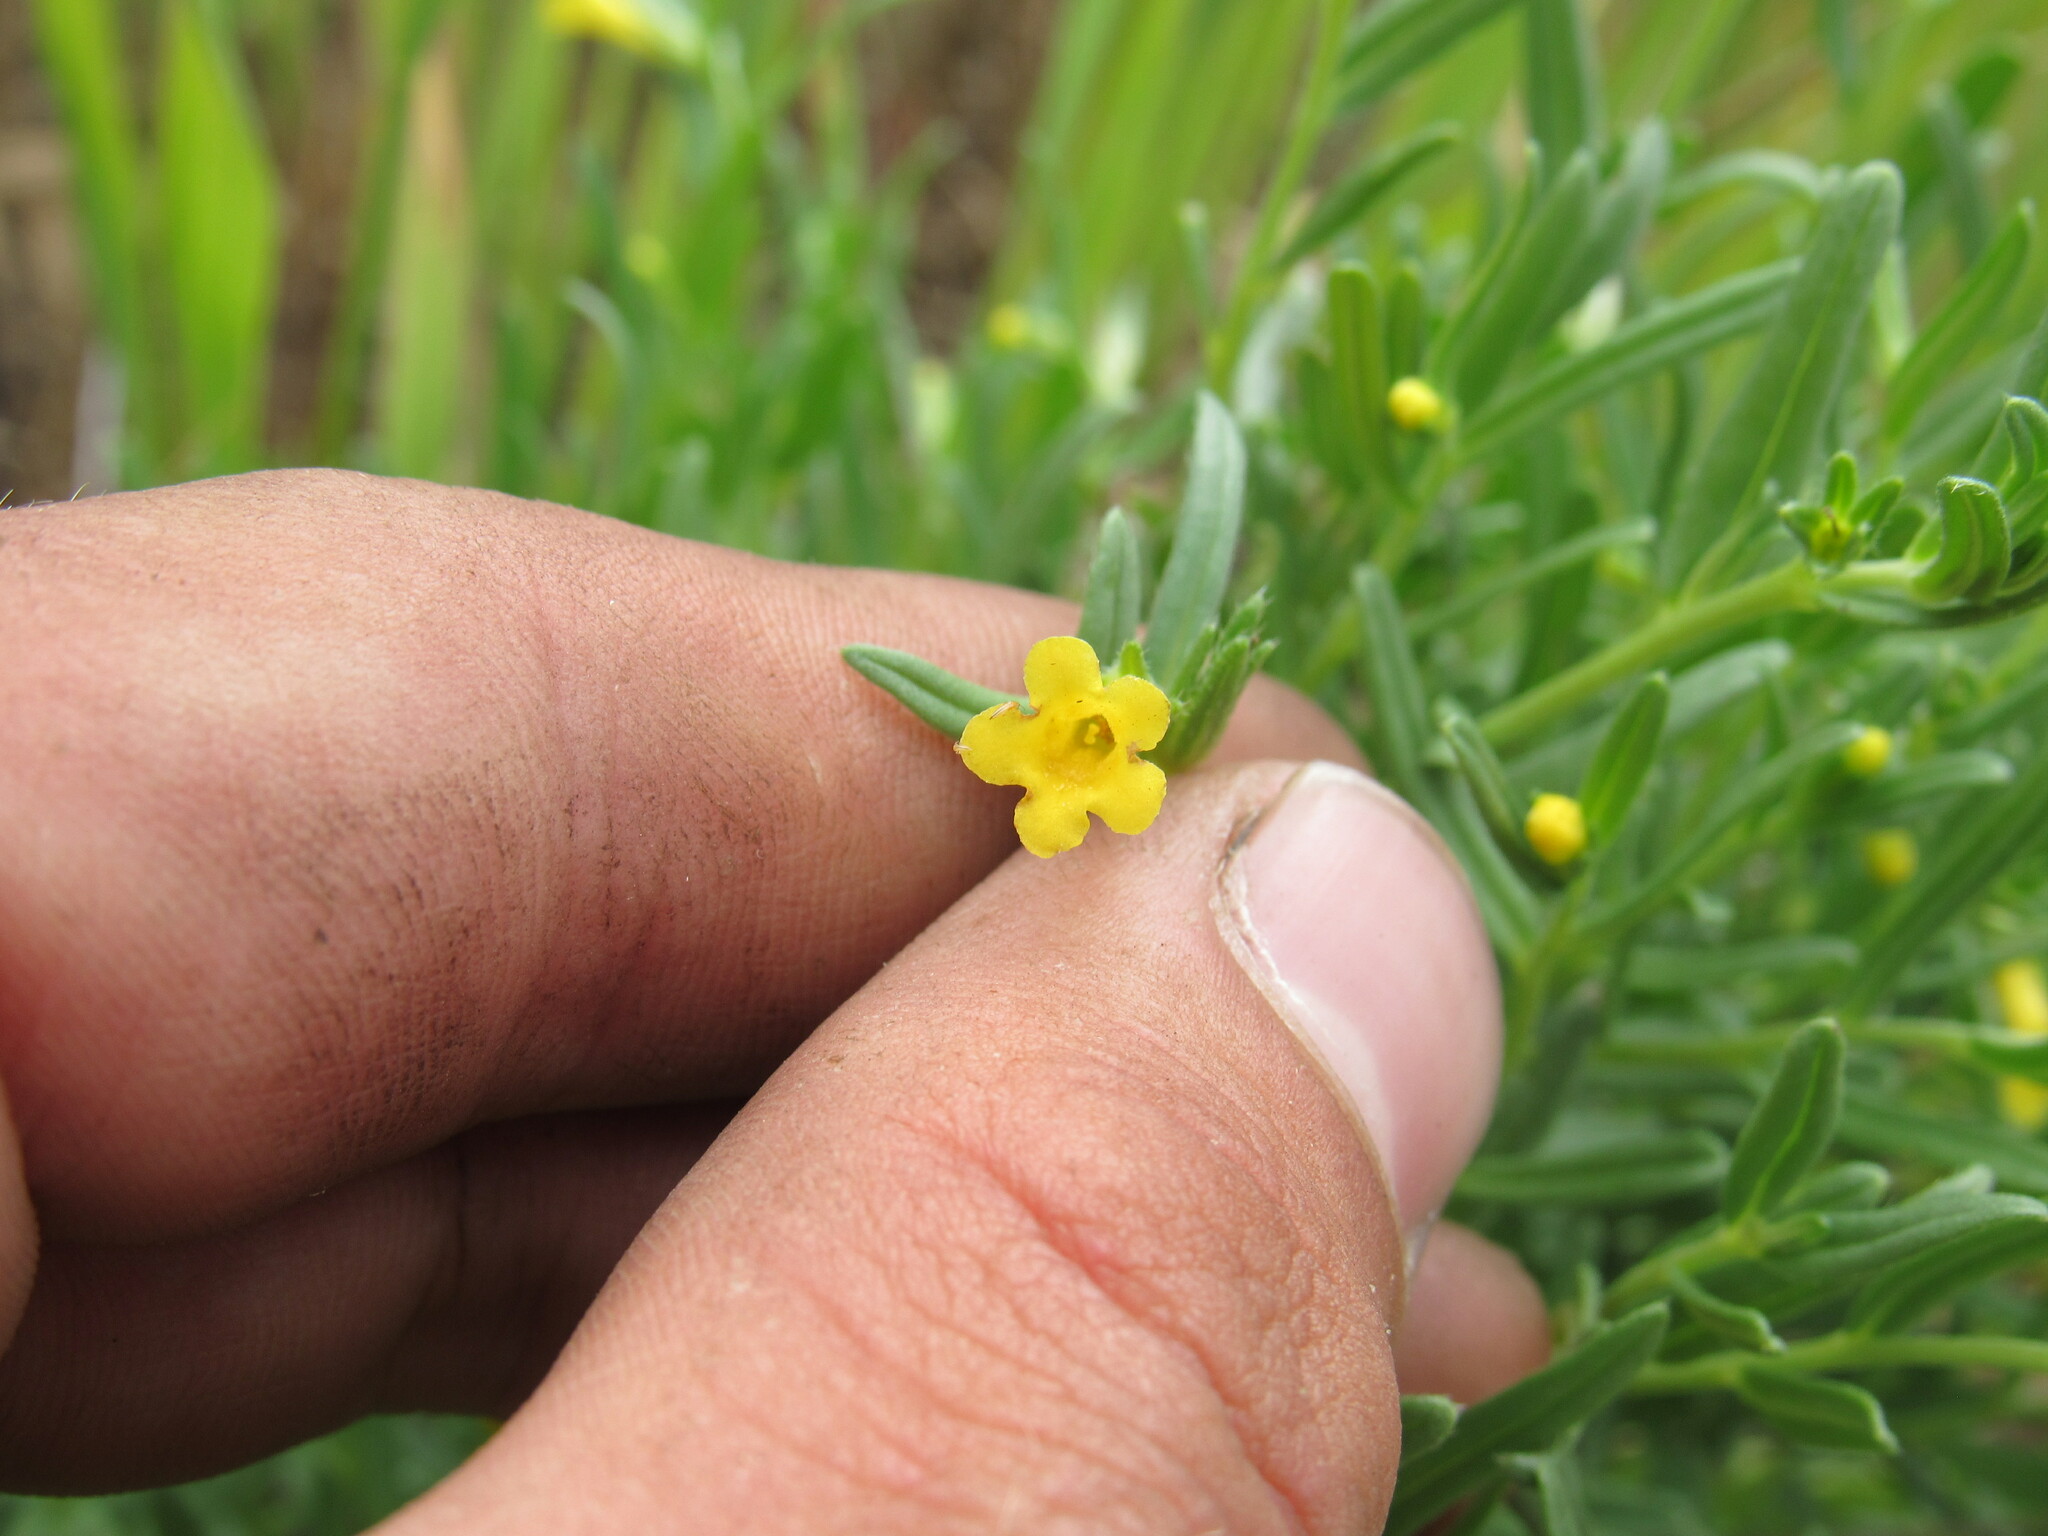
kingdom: Plantae
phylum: Tracheophyta
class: Magnoliopsida
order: Boraginales
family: Boraginaceae
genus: Lithospermum
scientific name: Lithospermum multiflorum
